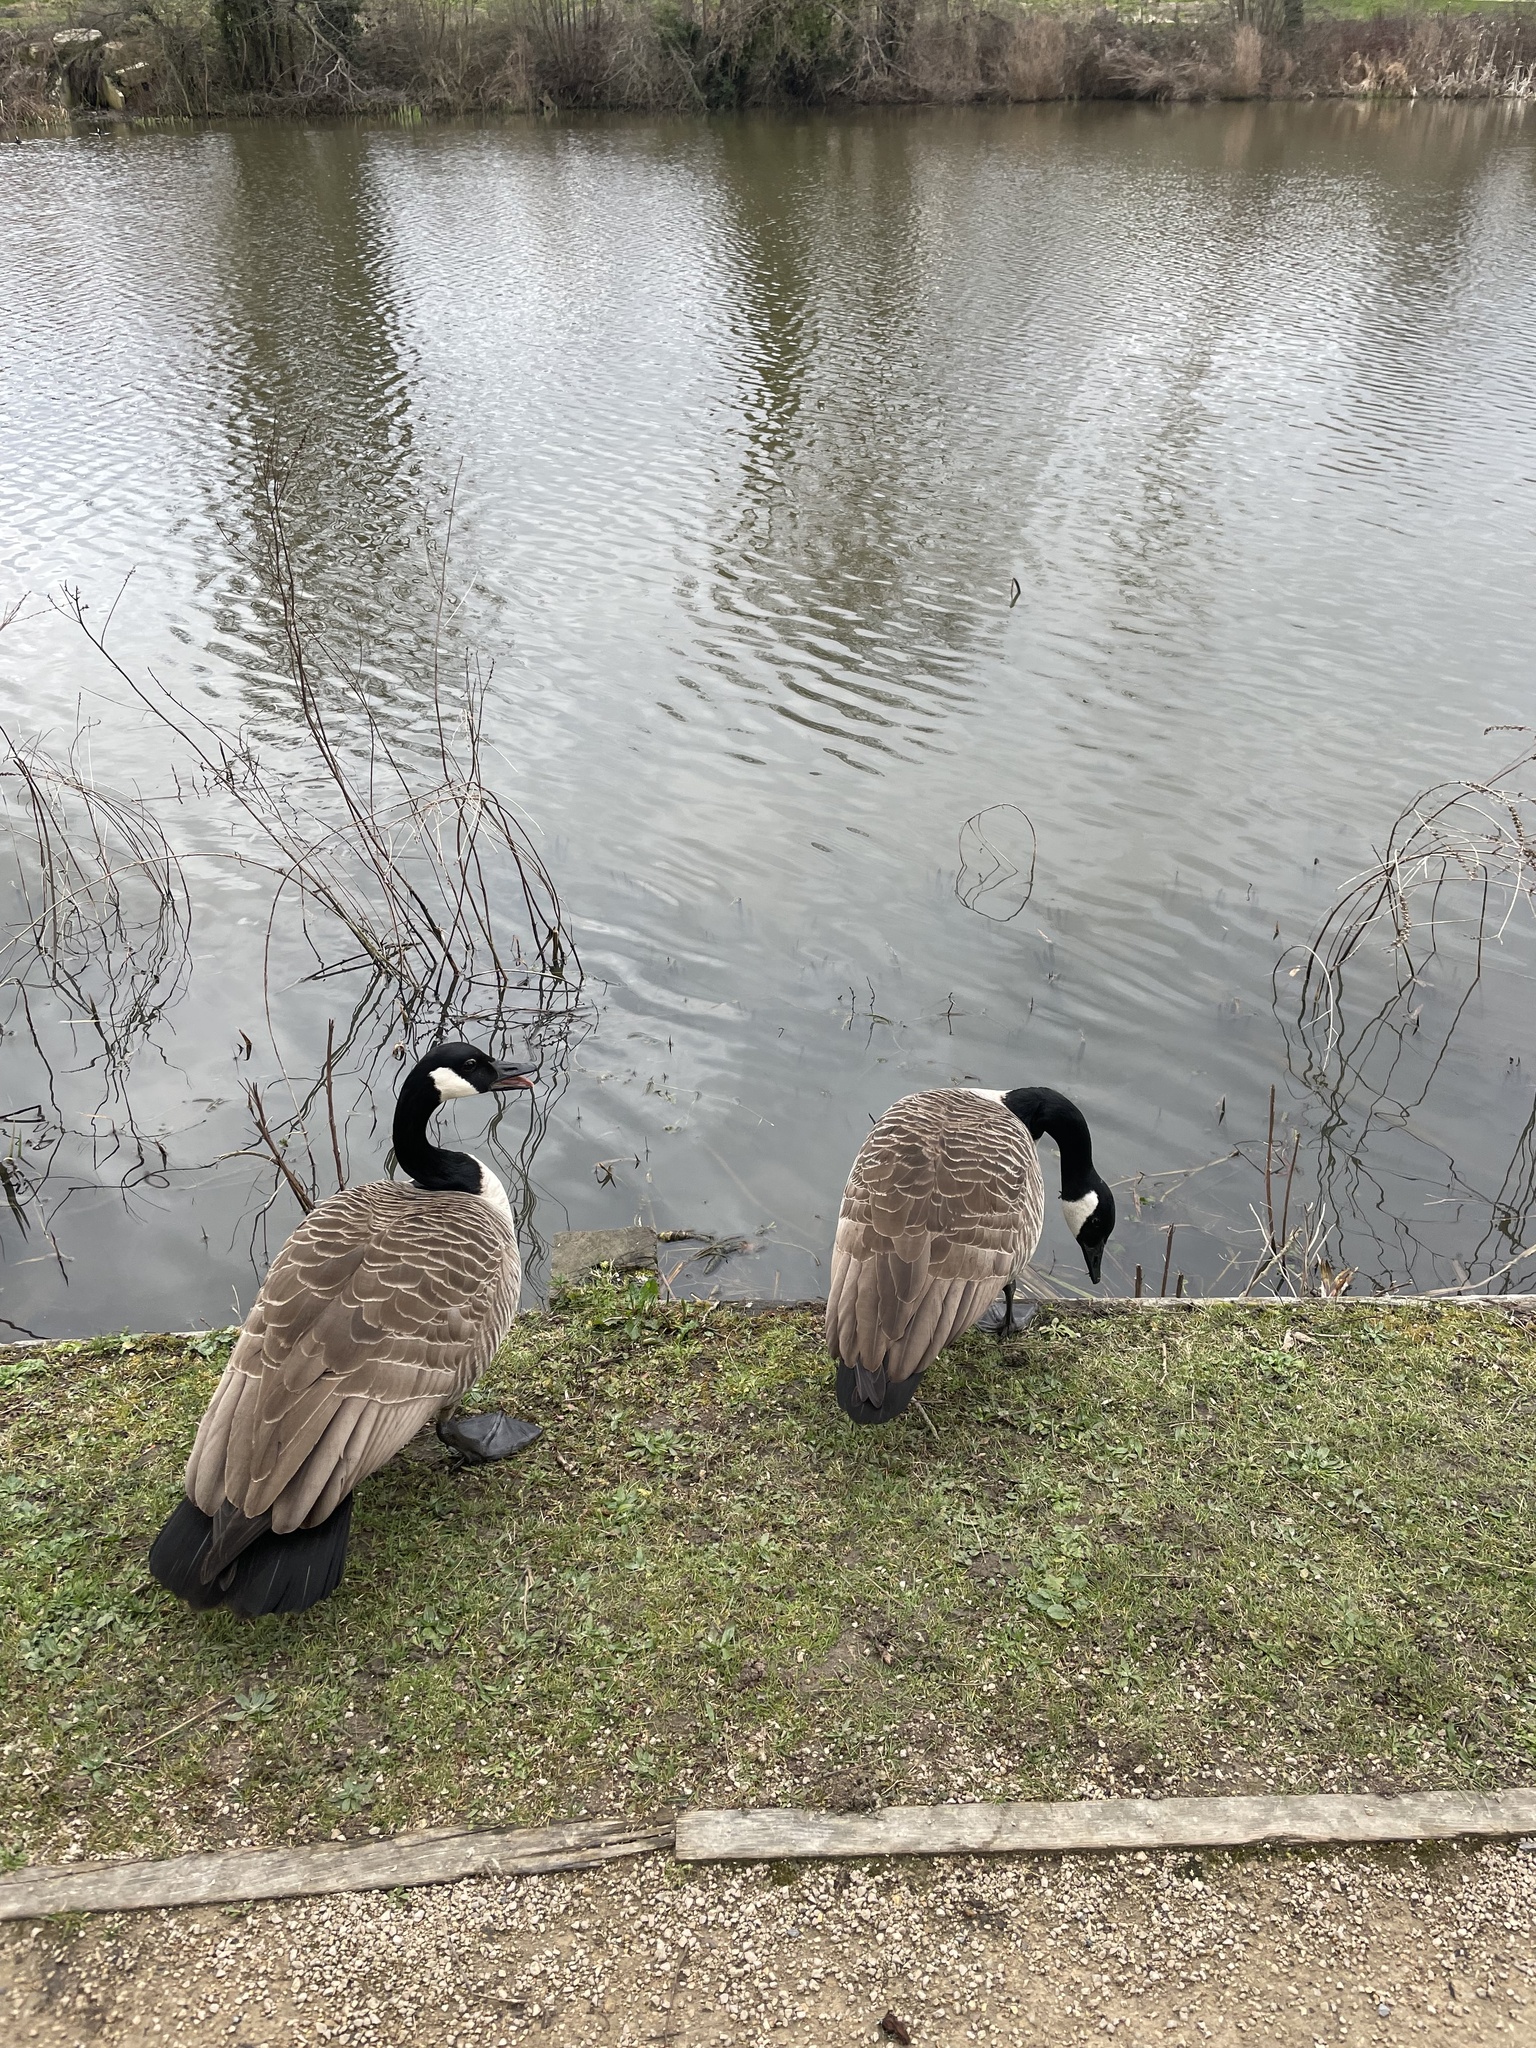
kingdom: Animalia
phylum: Chordata
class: Aves
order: Anseriformes
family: Anatidae
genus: Branta
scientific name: Branta canadensis
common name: Canada goose
